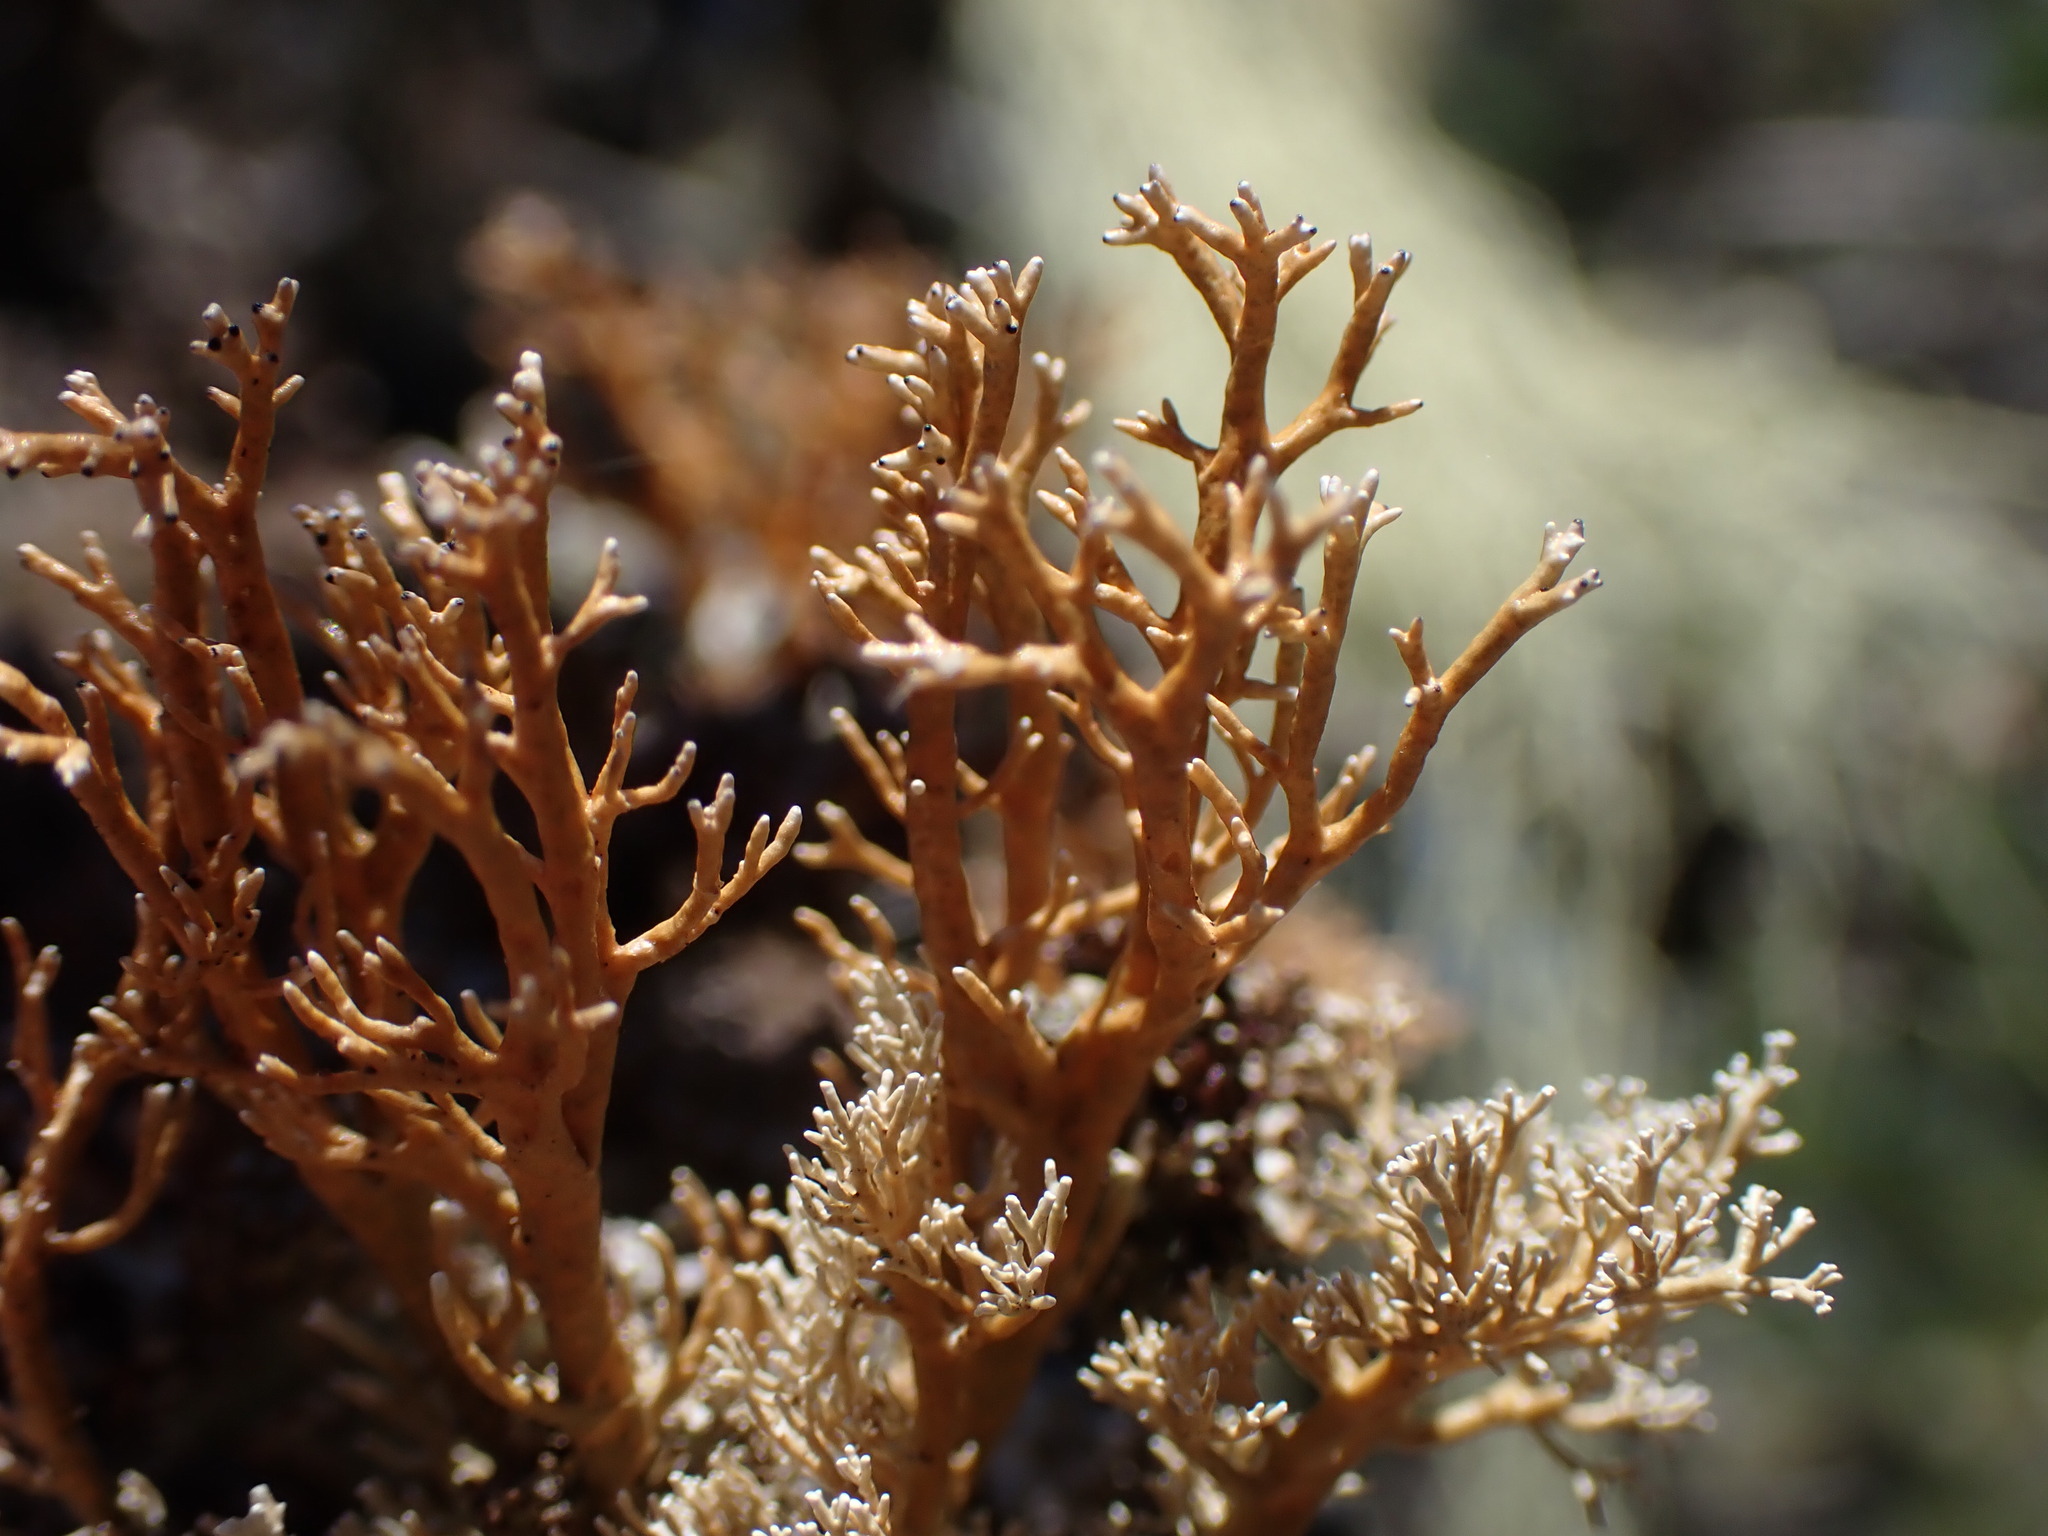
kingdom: Fungi
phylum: Ascomycota
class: Lecanoromycetes
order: Lecanorales
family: Sphaerophoraceae
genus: Sphaerophorus
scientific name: Sphaerophorus venerabilis
